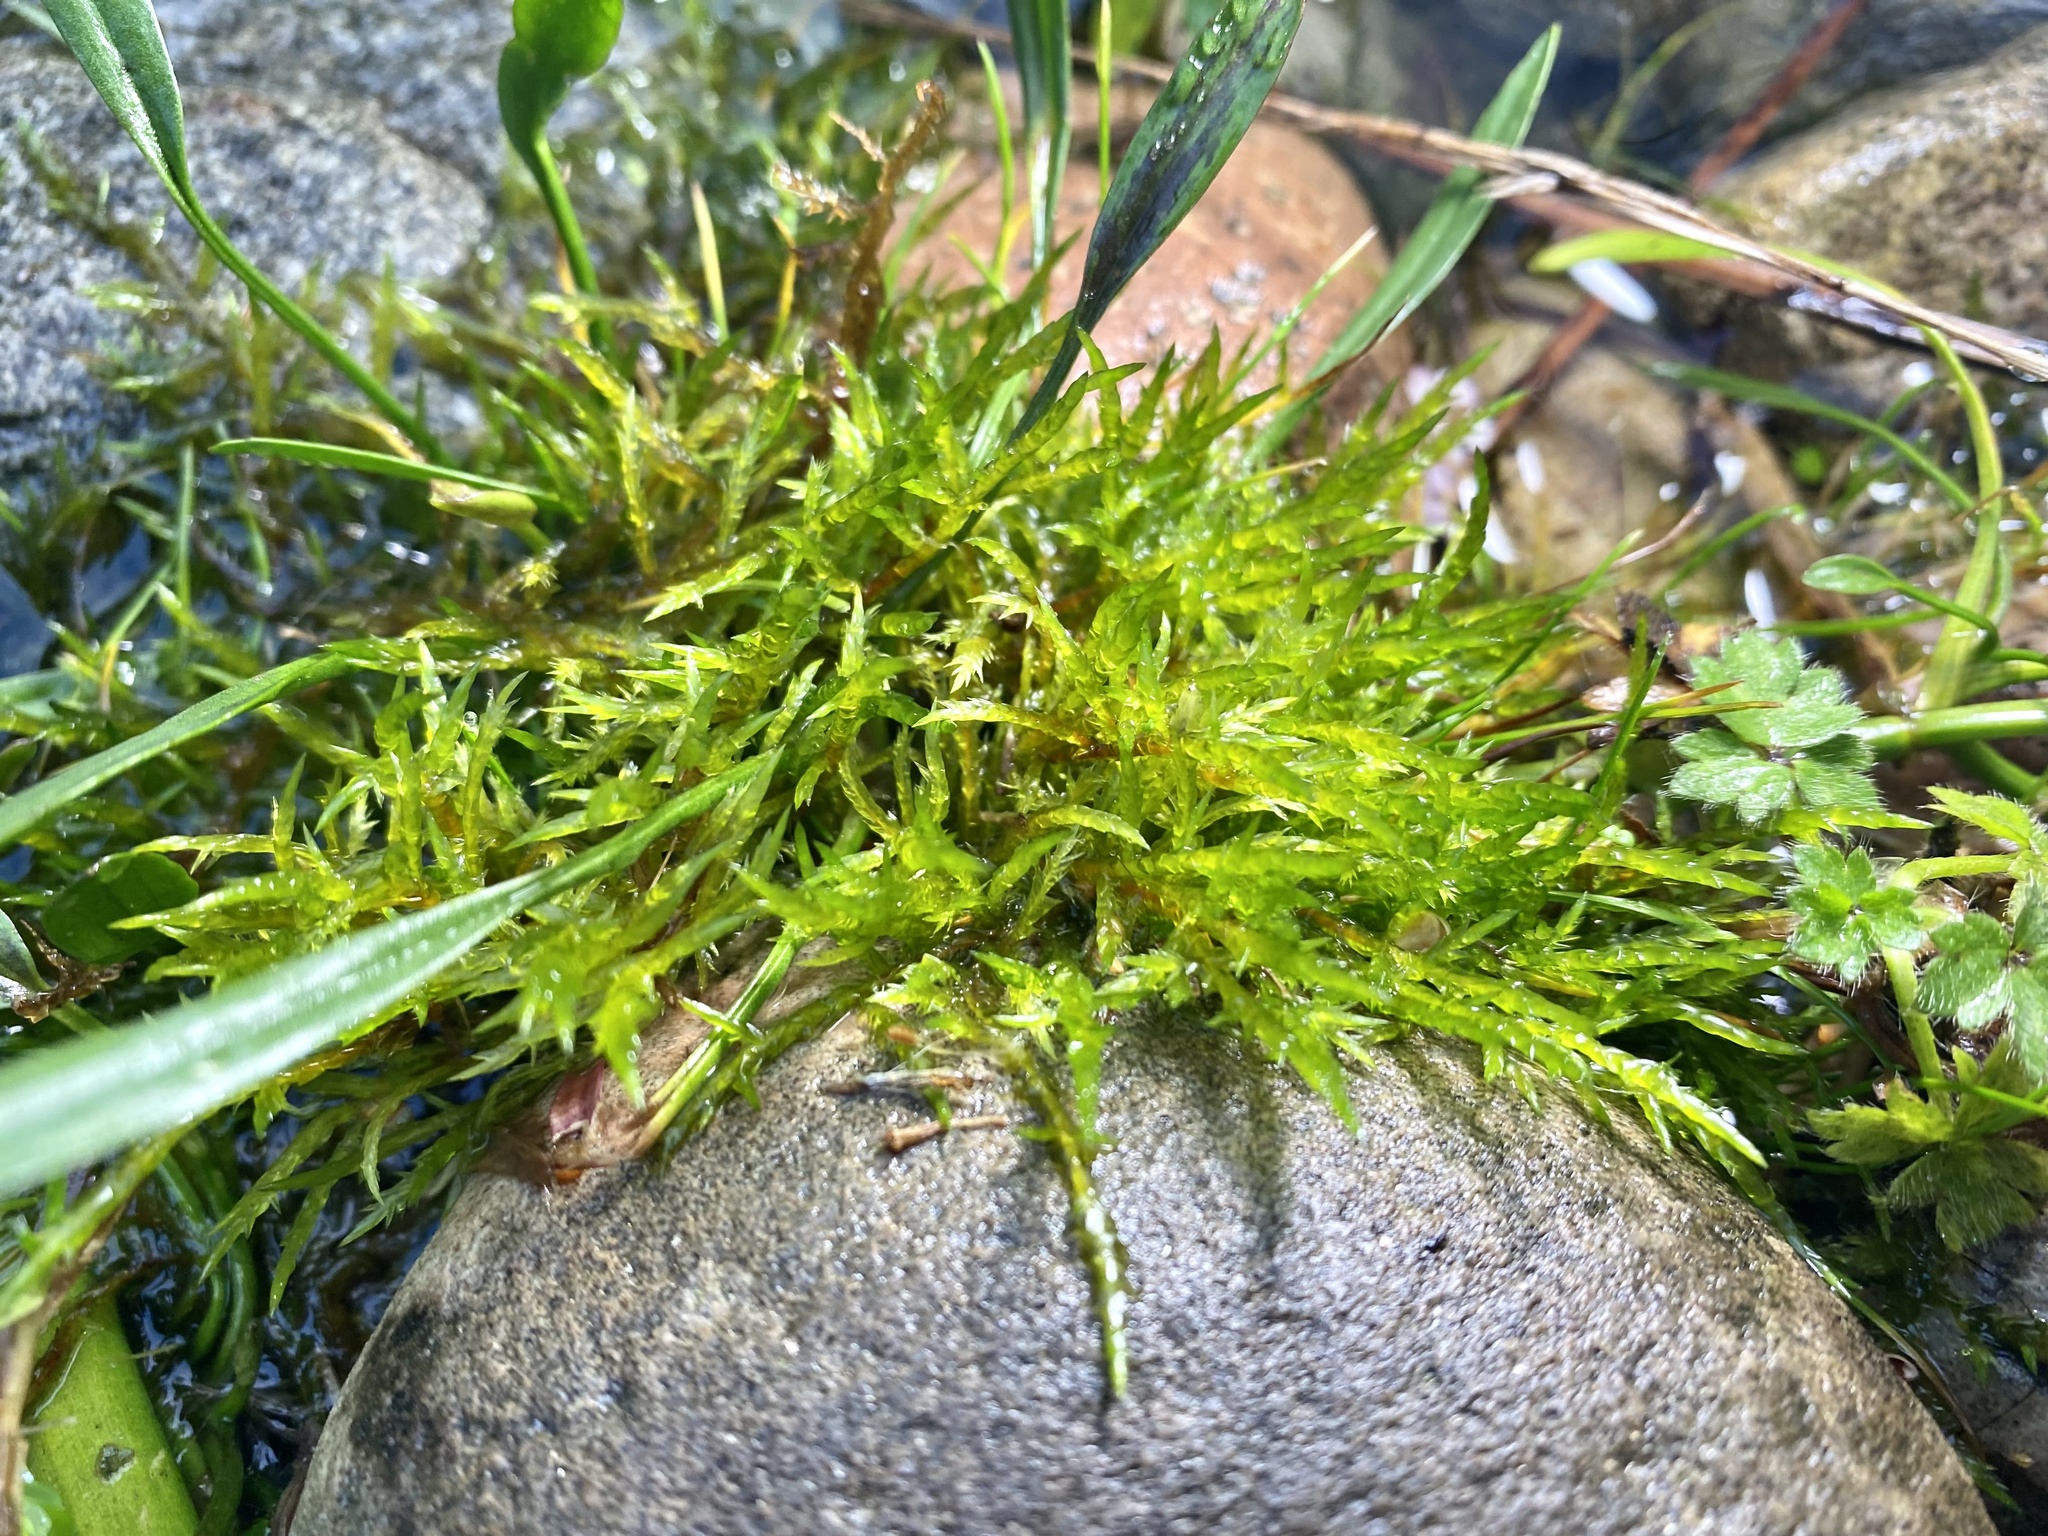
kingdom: Plantae
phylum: Bryophyta
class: Bryopsida
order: Hypnales
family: Pylaisiaceae
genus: Calliergonella
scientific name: Calliergonella cuspidata
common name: Common large wetland moss
